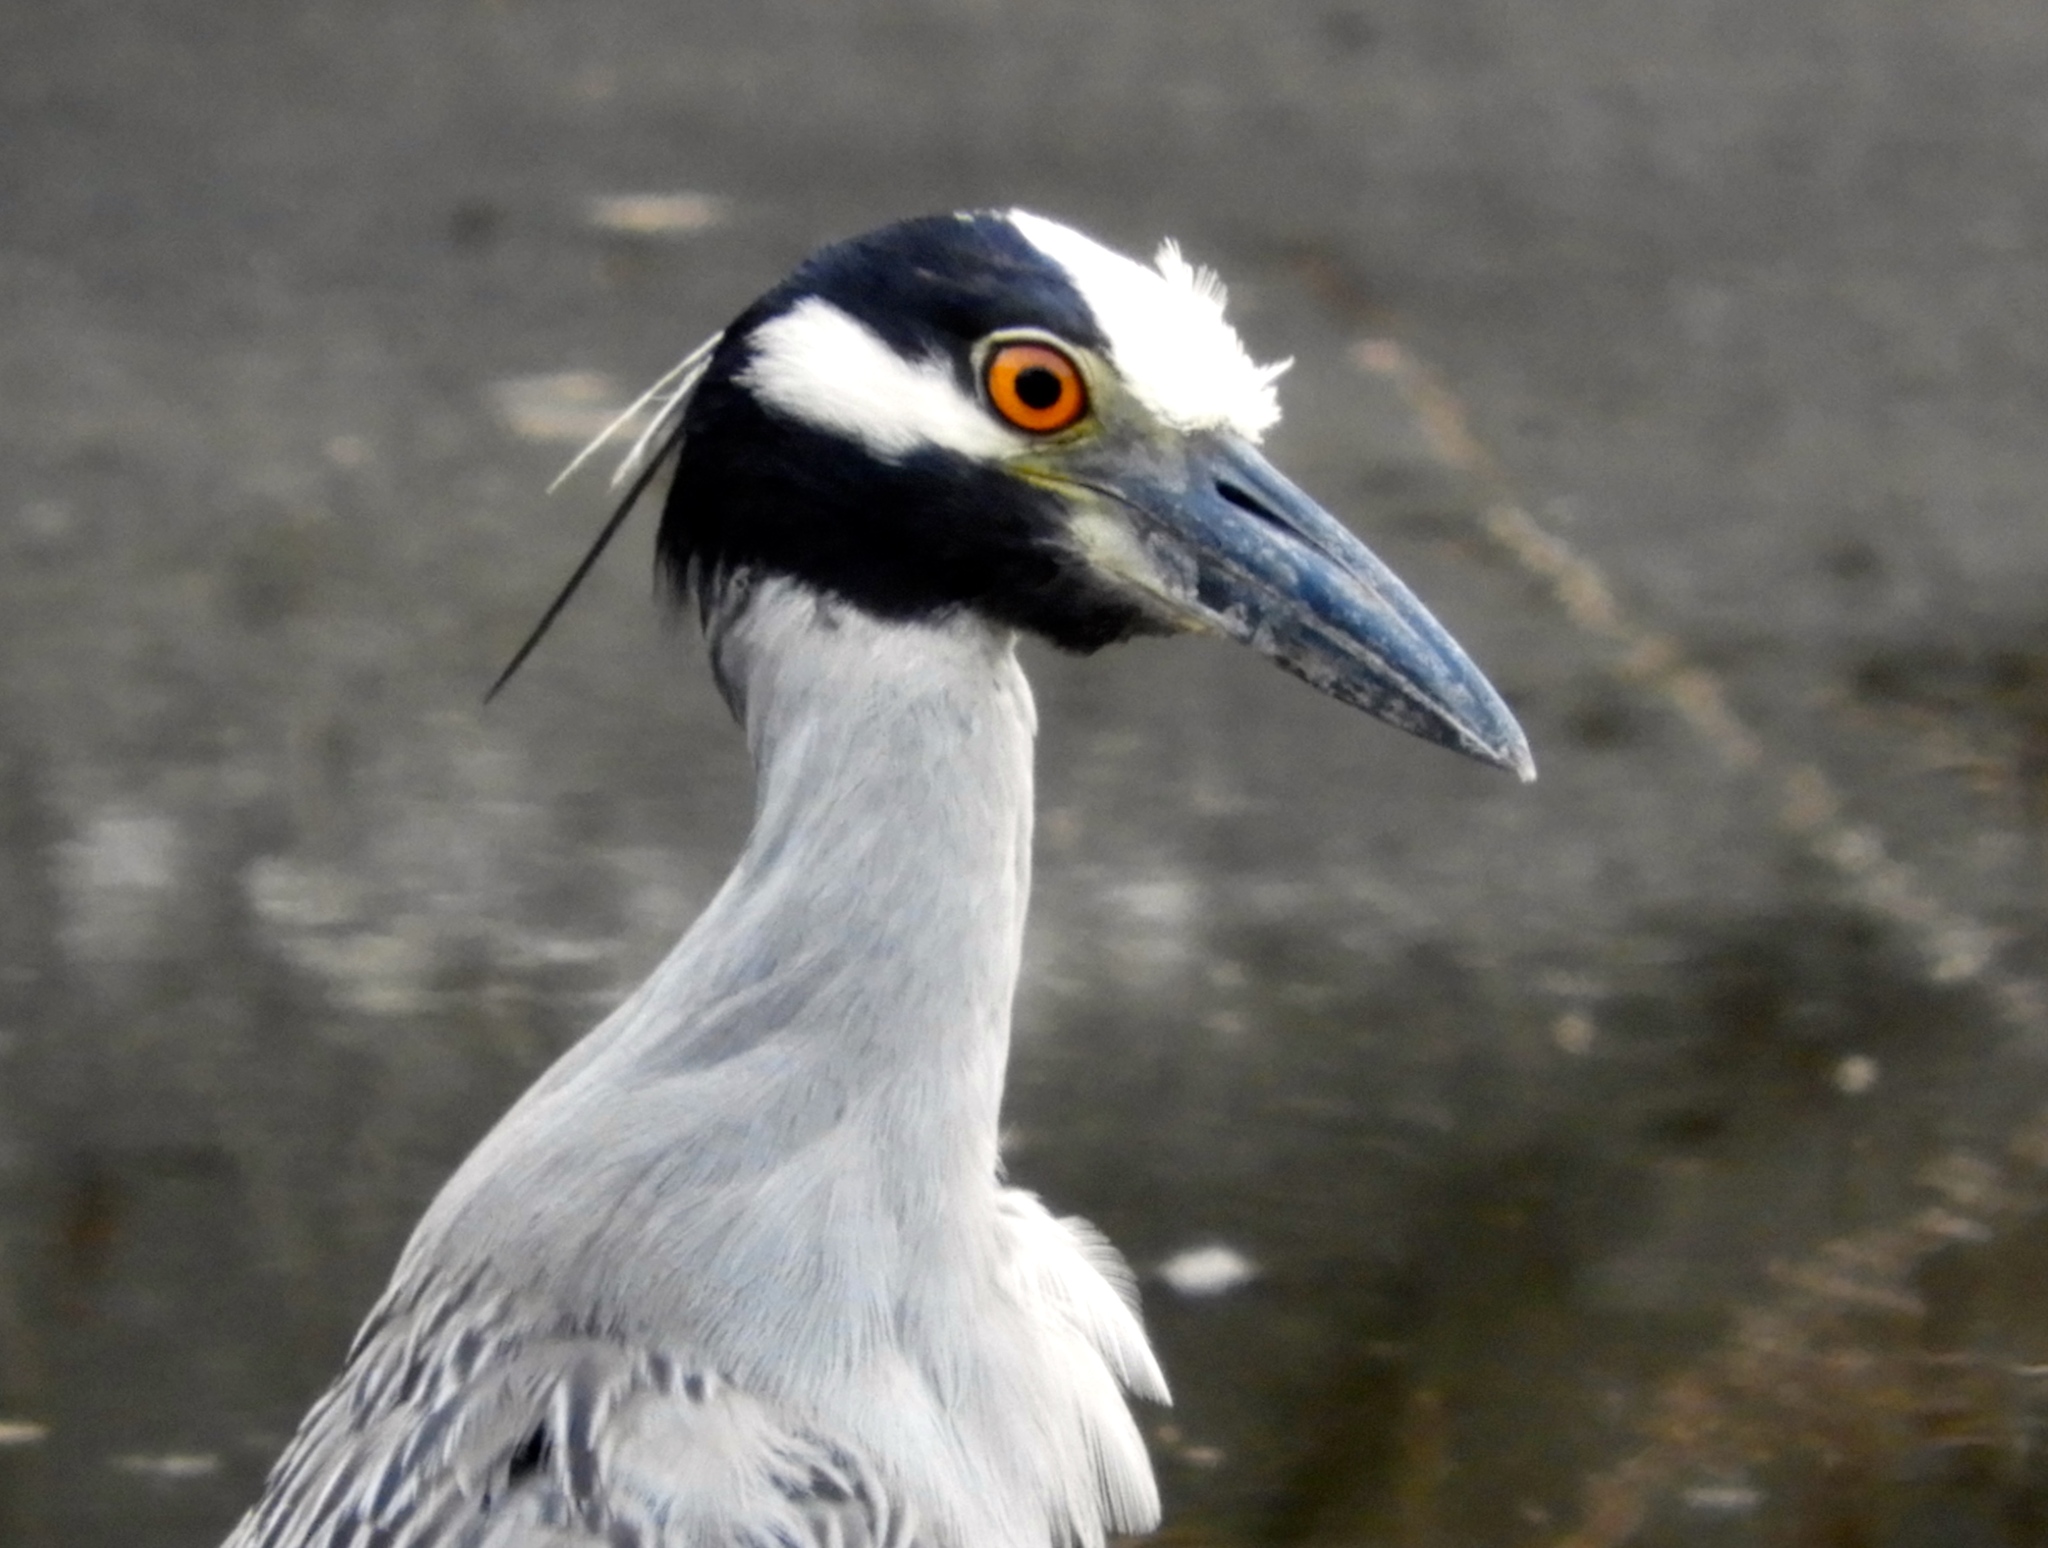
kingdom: Animalia
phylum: Chordata
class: Aves
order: Pelecaniformes
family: Ardeidae
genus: Nyctanassa
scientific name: Nyctanassa violacea
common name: Yellow-crowned night heron
